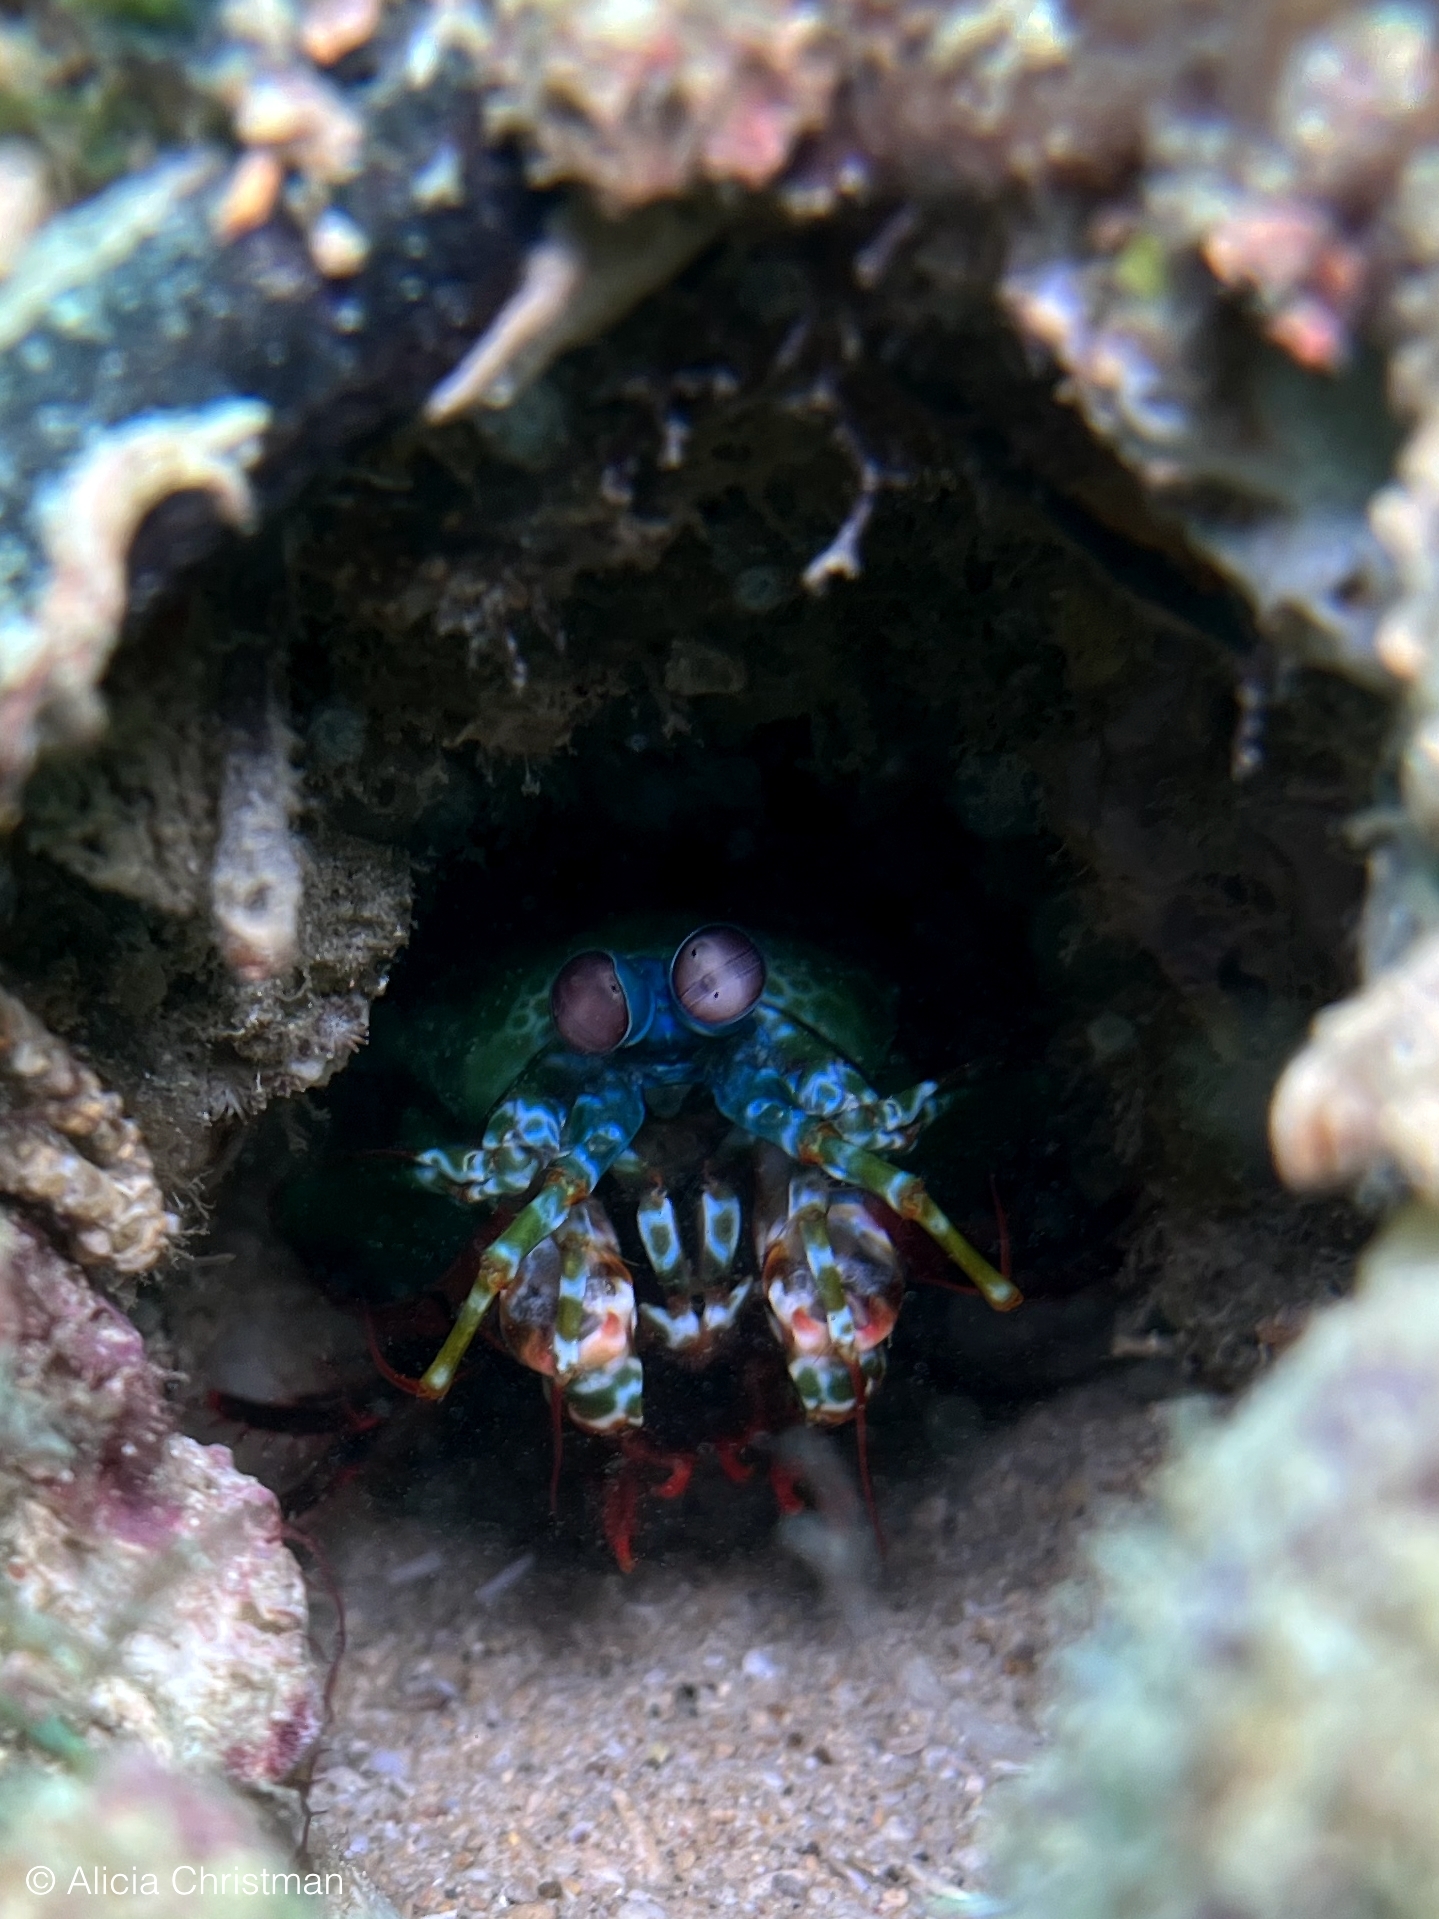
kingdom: Animalia
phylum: Arthropoda
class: Malacostraca
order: Stomatopoda
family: Odontodactylidae
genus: Odontodactylus
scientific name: Odontodactylus scyllarus
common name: Peacock mantis shrimp
